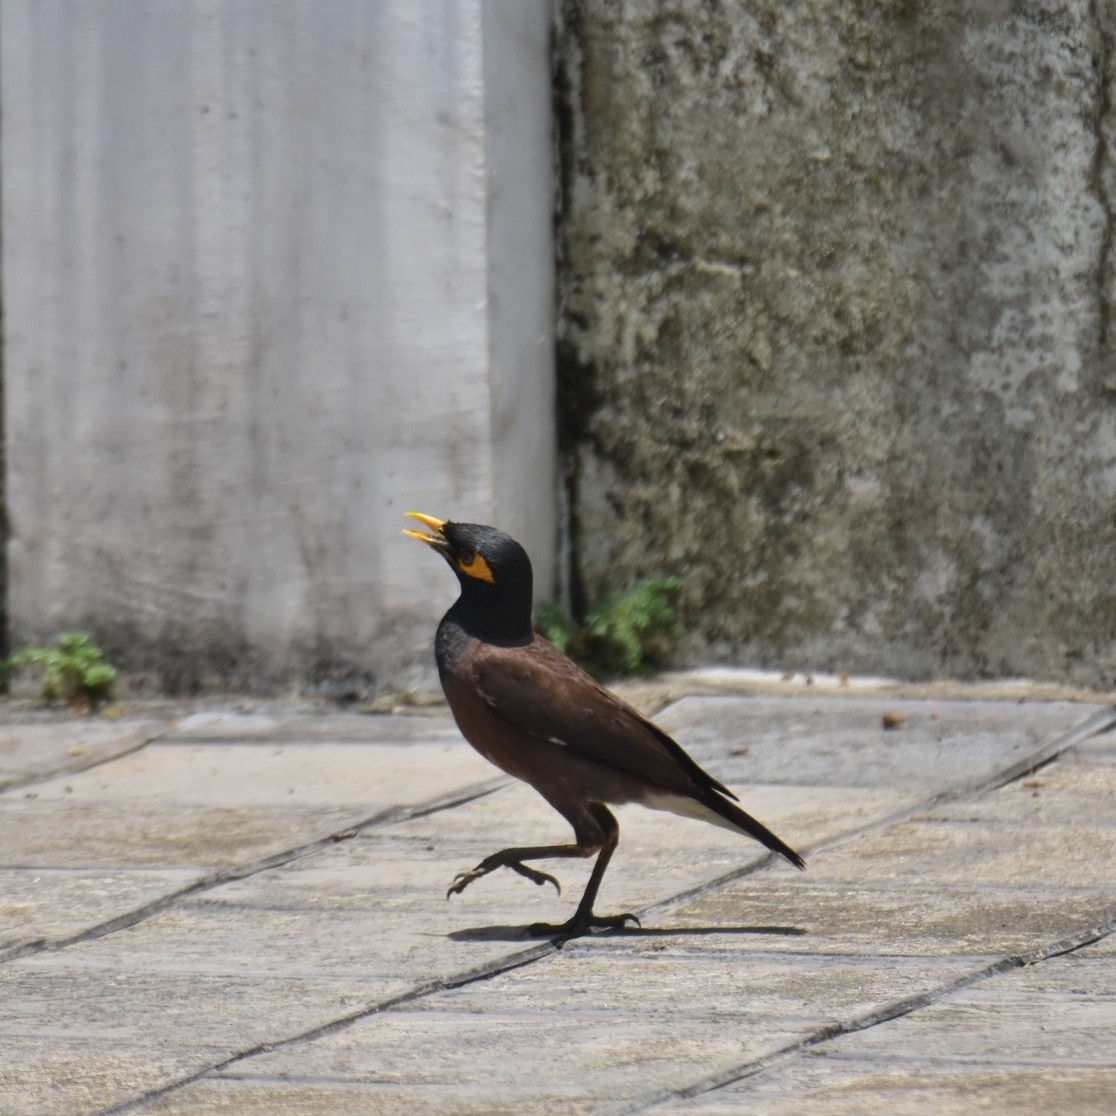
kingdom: Animalia
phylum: Chordata
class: Aves
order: Passeriformes
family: Sturnidae
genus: Acridotheres
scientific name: Acridotheres tristis
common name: Common myna
